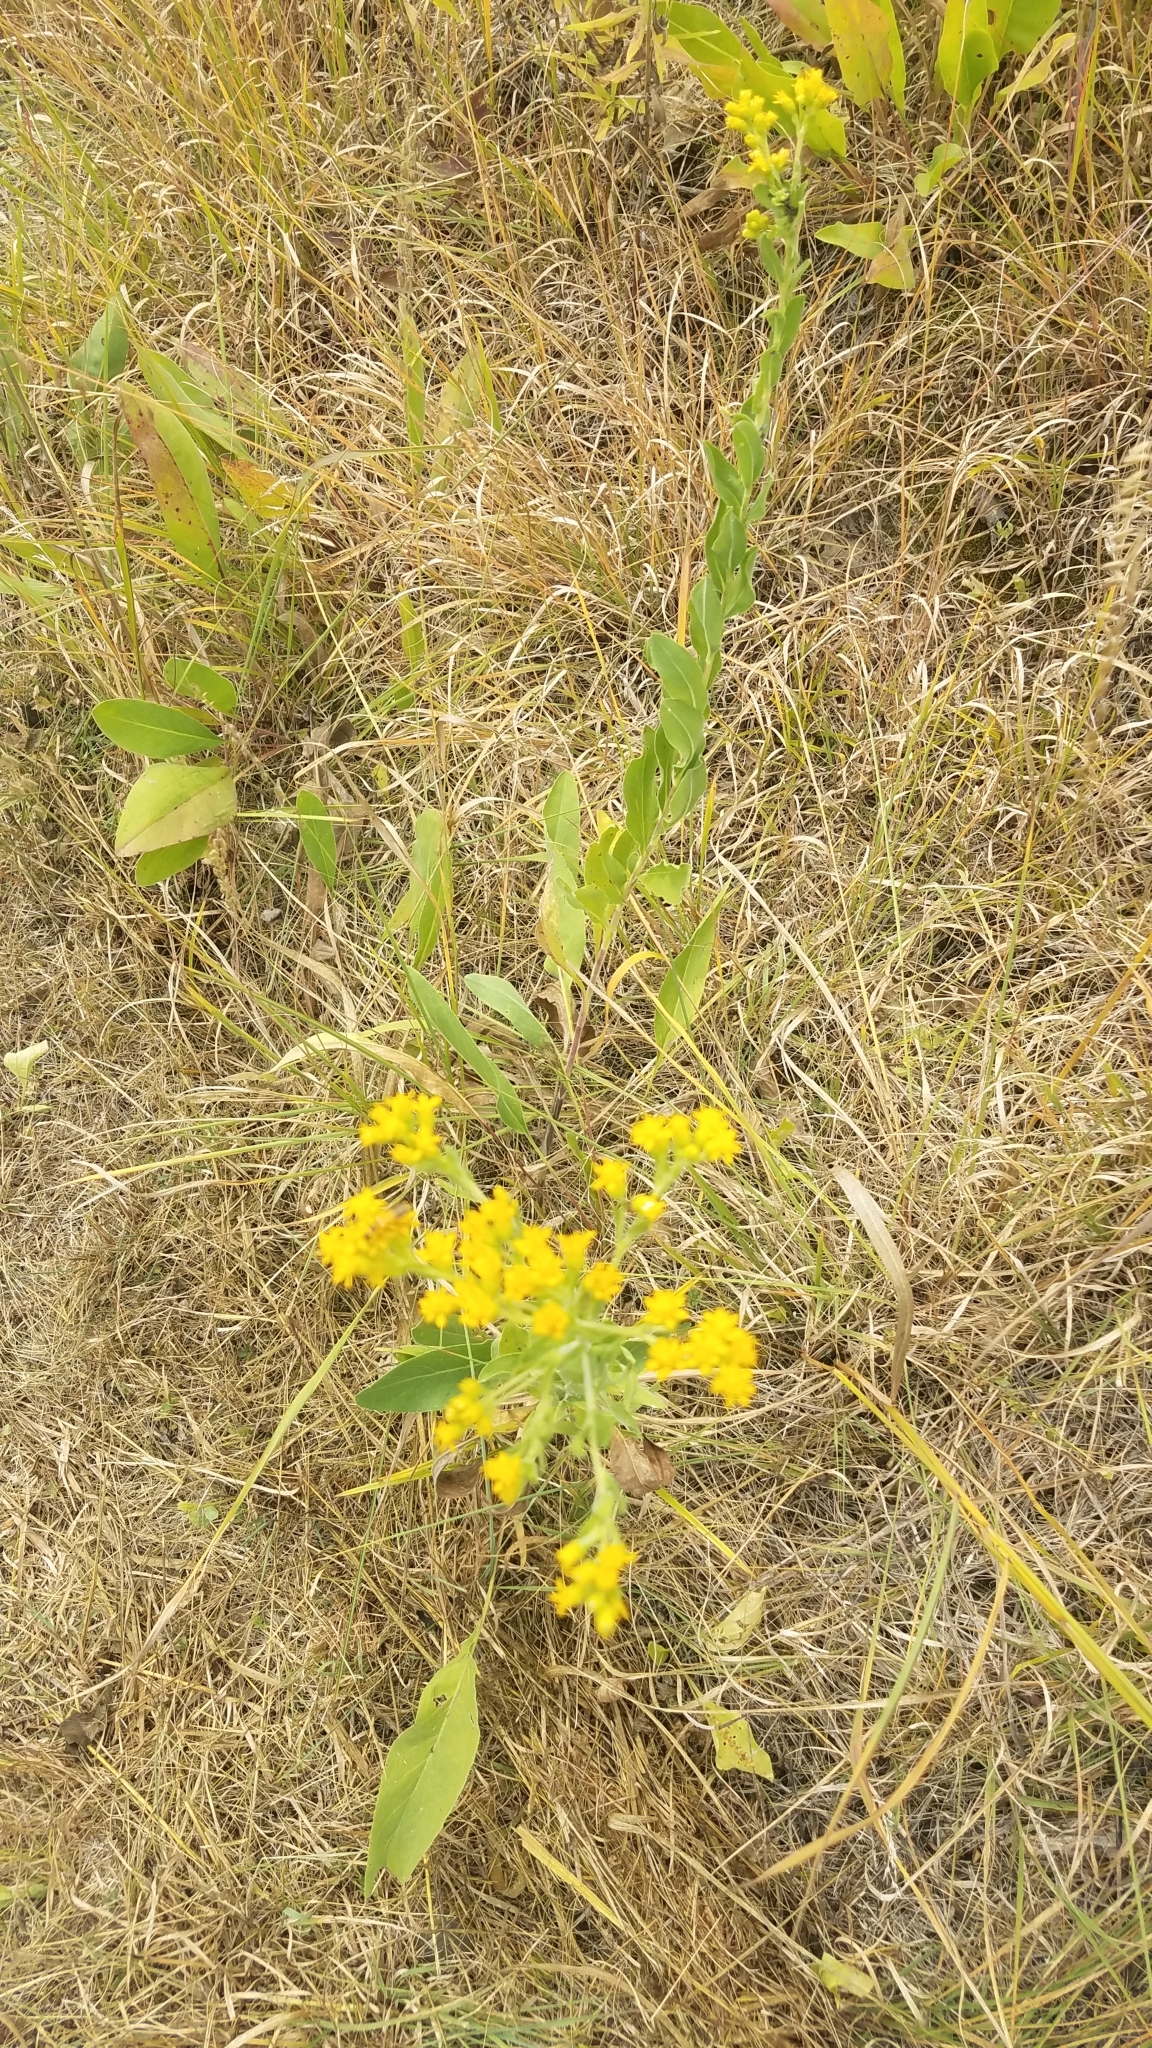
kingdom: Plantae
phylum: Tracheophyta
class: Magnoliopsida
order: Asterales
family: Asteraceae
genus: Solidago
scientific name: Solidago rigida
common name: Rigid goldenrod
